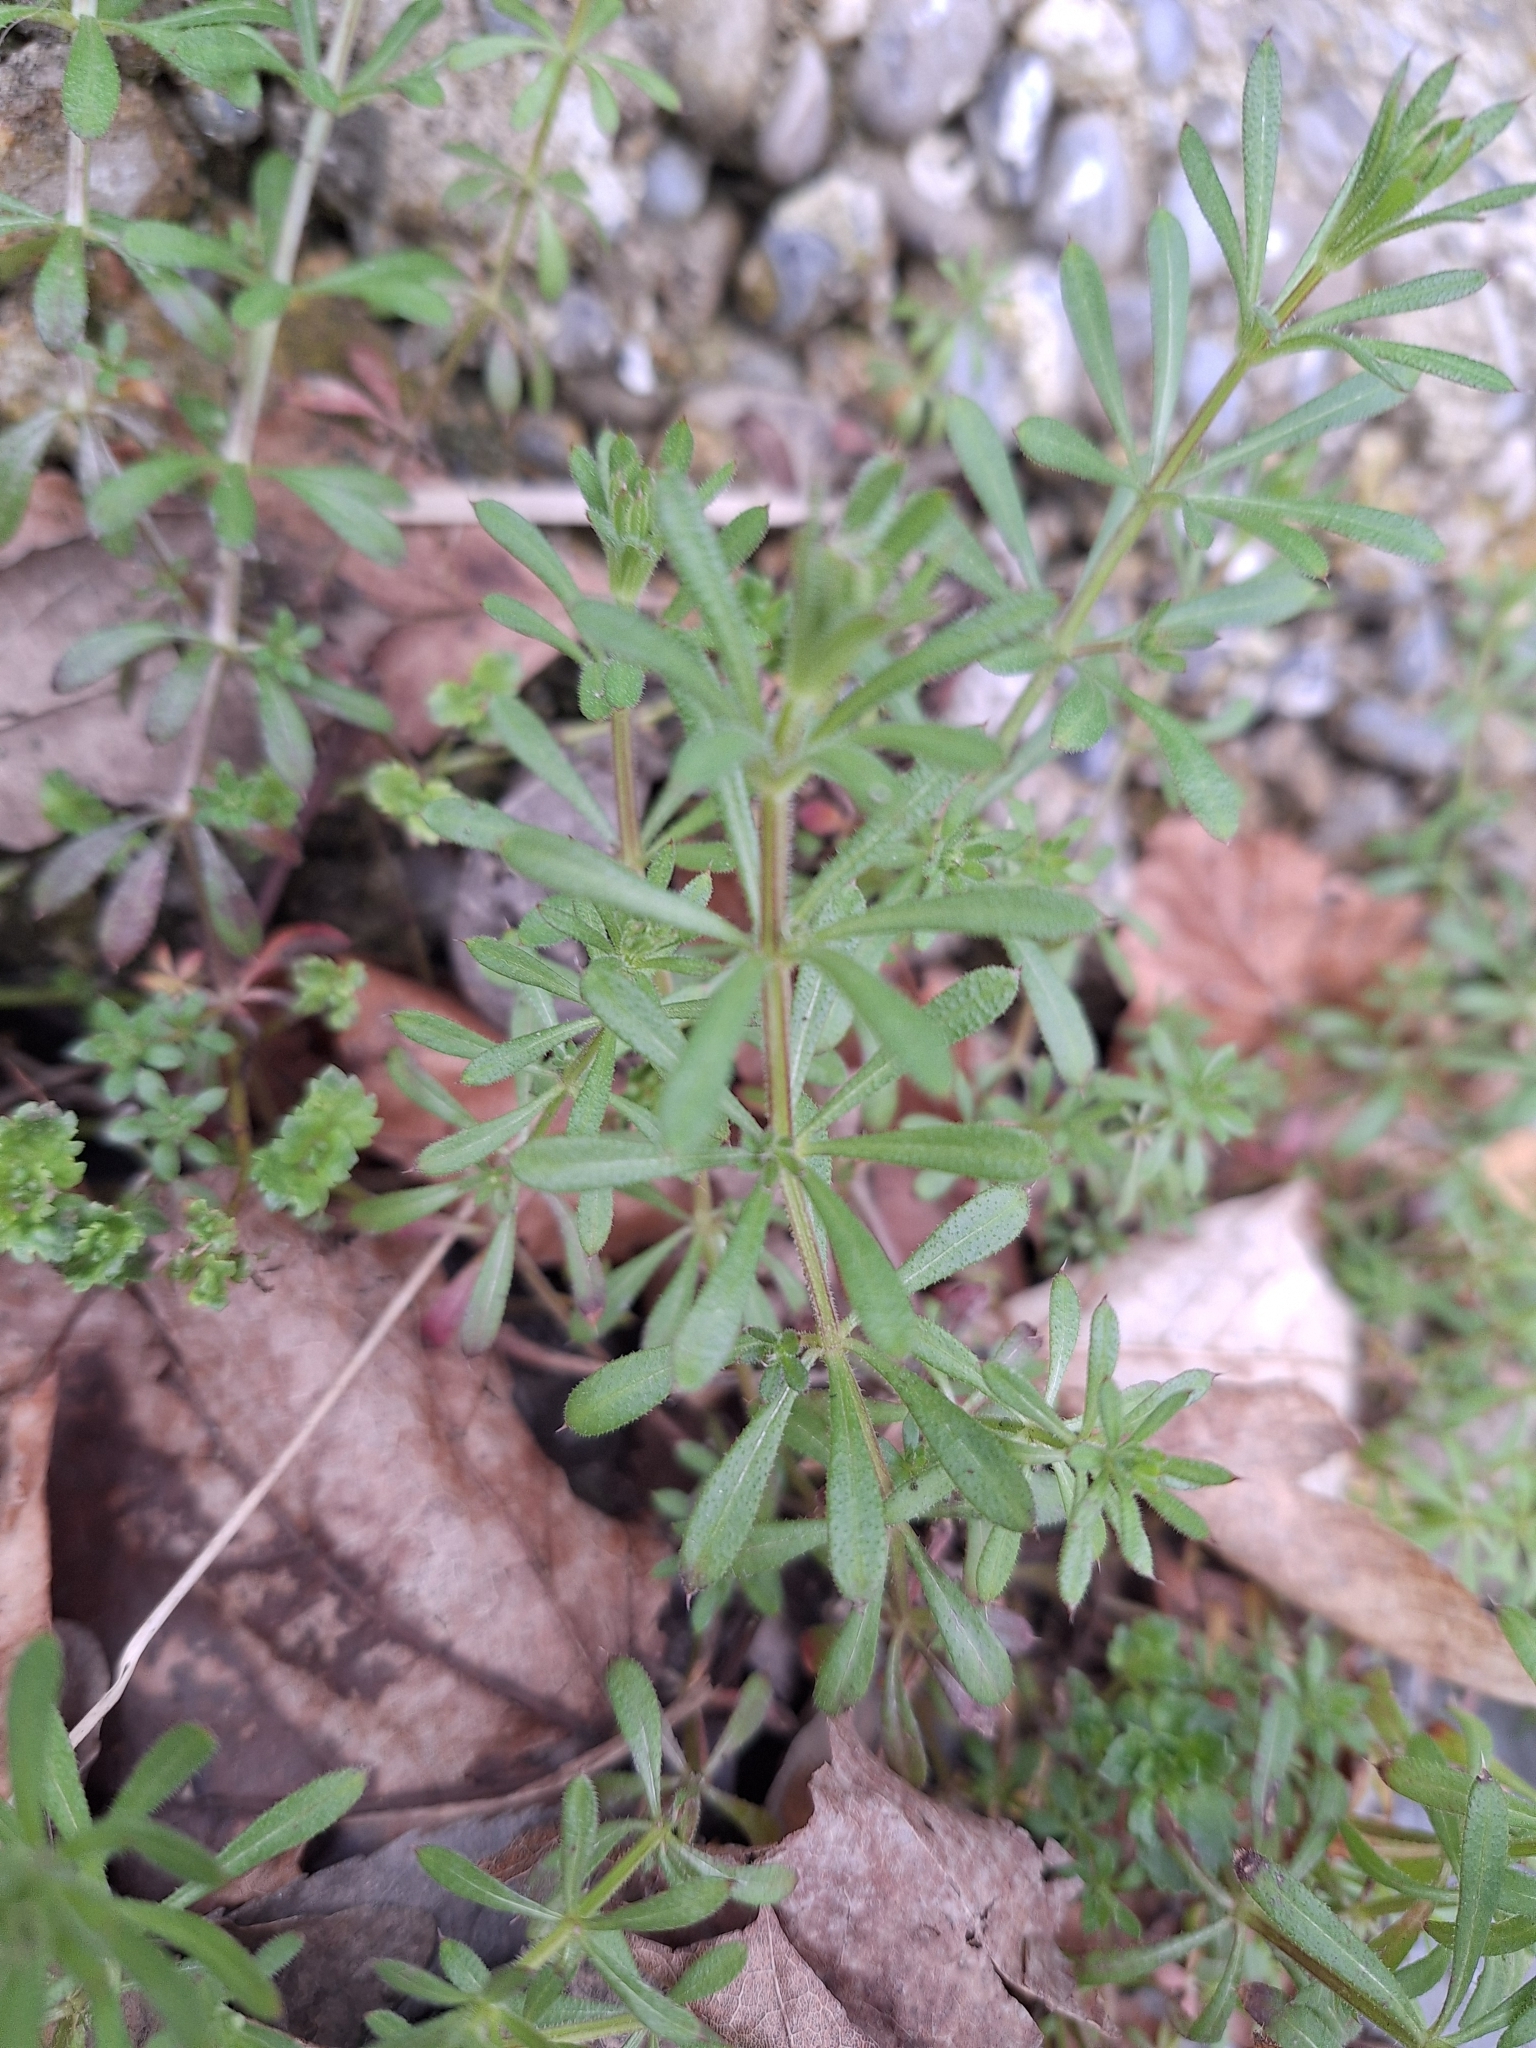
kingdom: Plantae
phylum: Tracheophyta
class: Magnoliopsida
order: Gentianales
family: Rubiaceae
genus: Galium
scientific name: Galium aparine
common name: Cleavers
